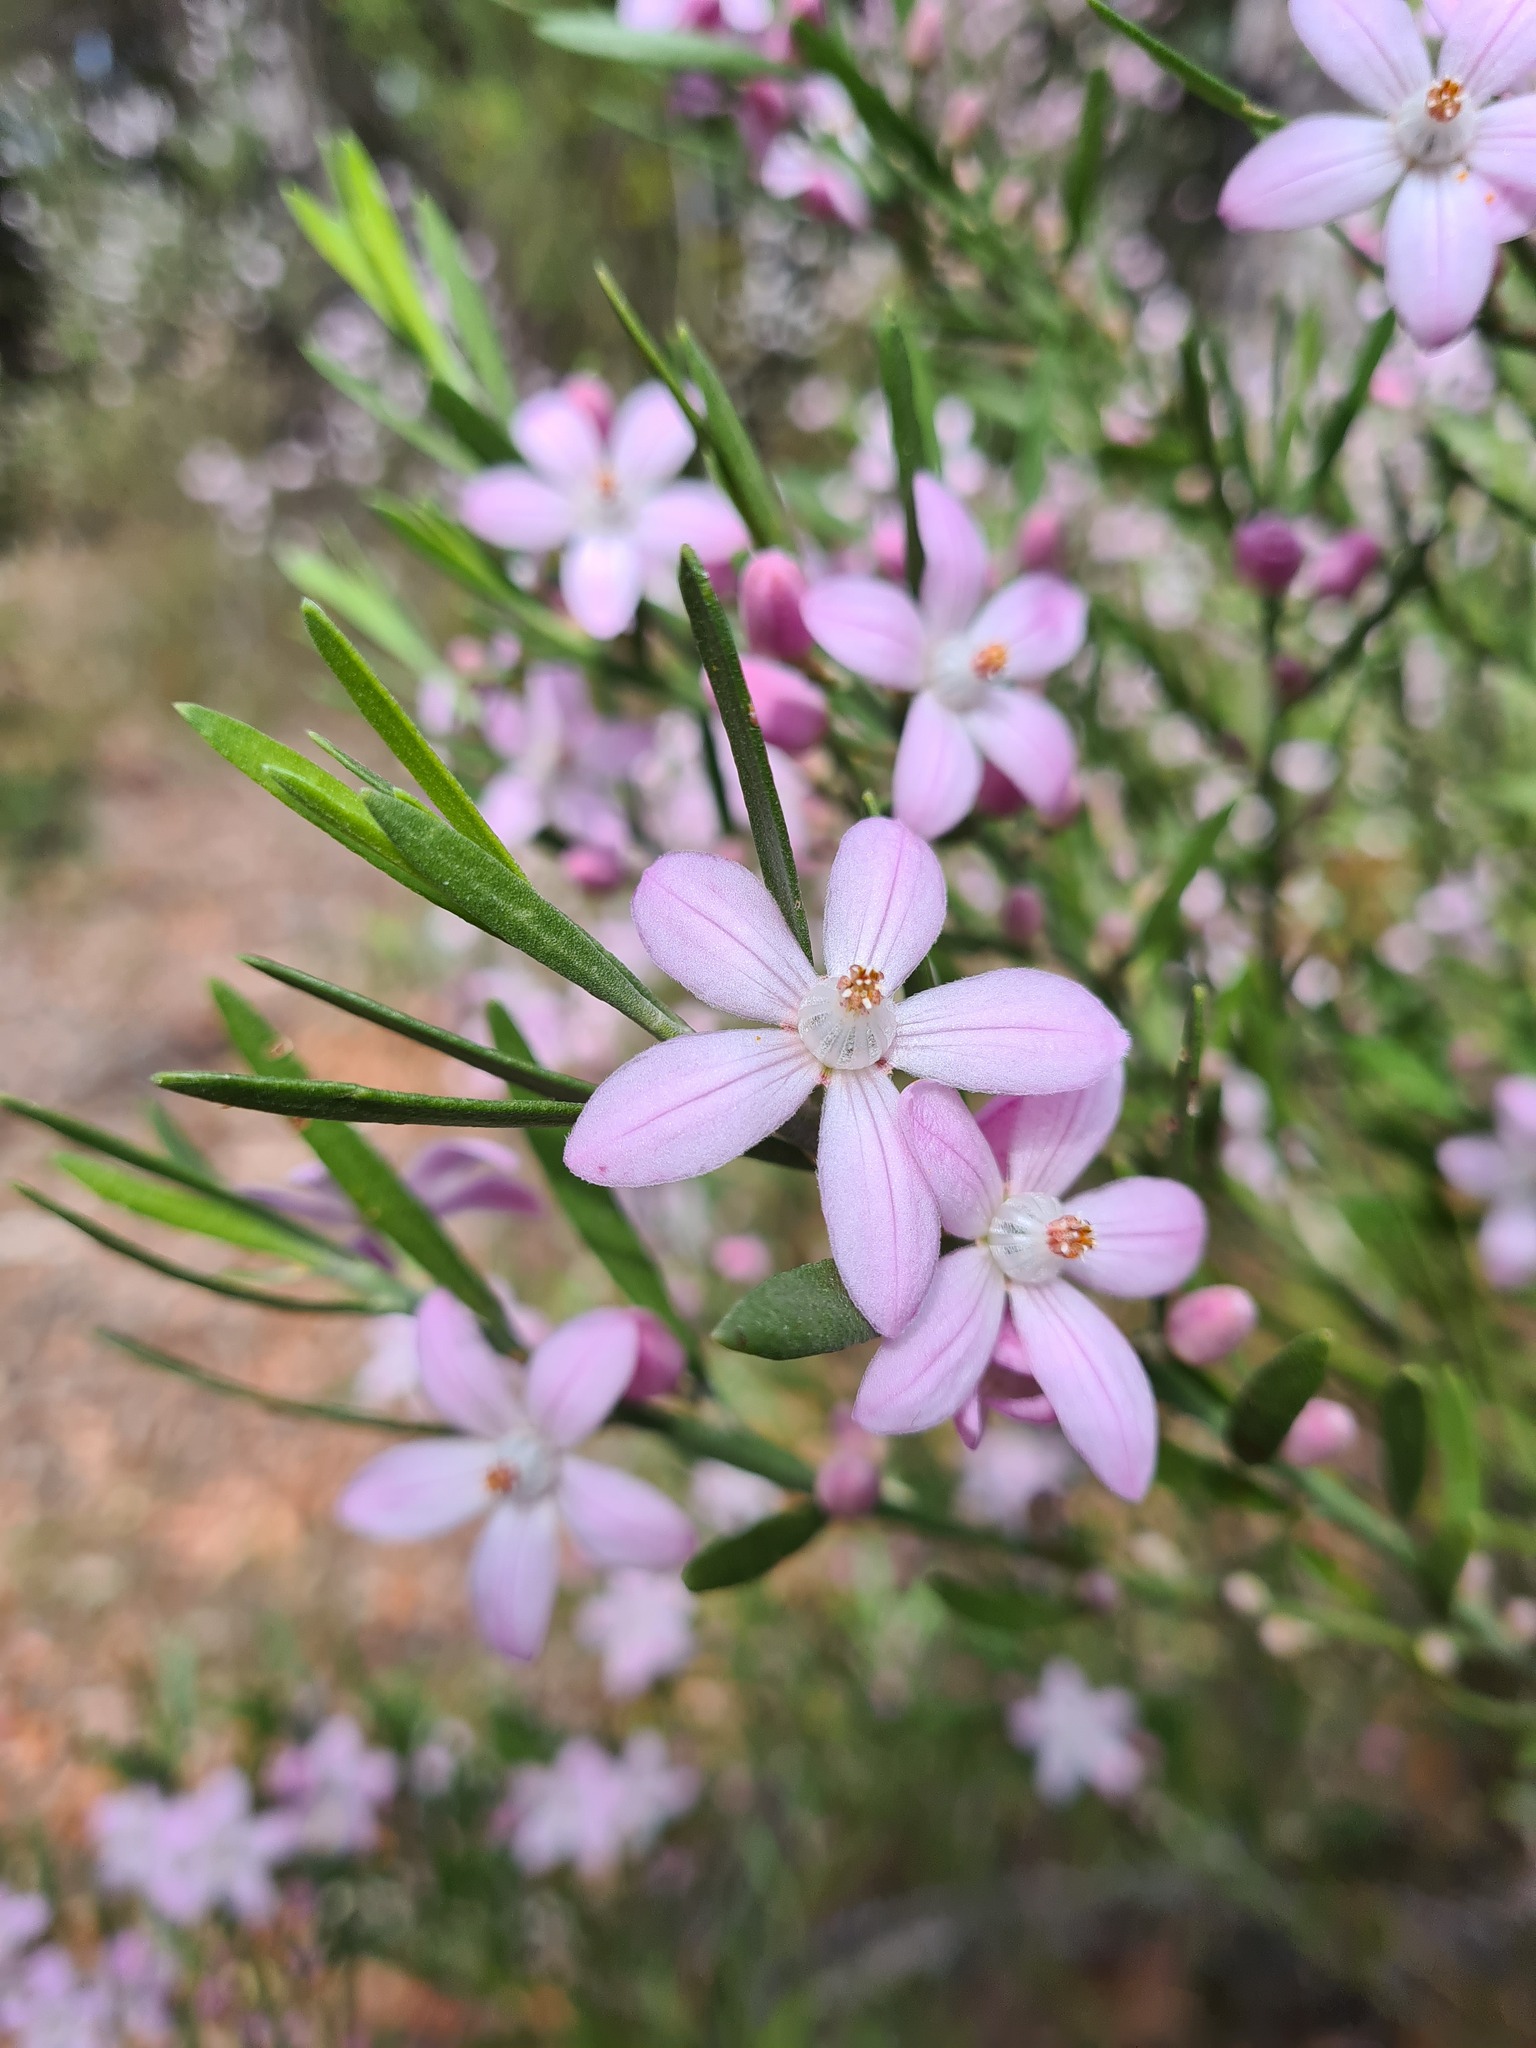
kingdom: Plantae
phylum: Tracheophyta
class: Magnoliopsida
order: Sapindales
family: Rutaceae
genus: Eriostemon
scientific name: Eriostemon australasius
